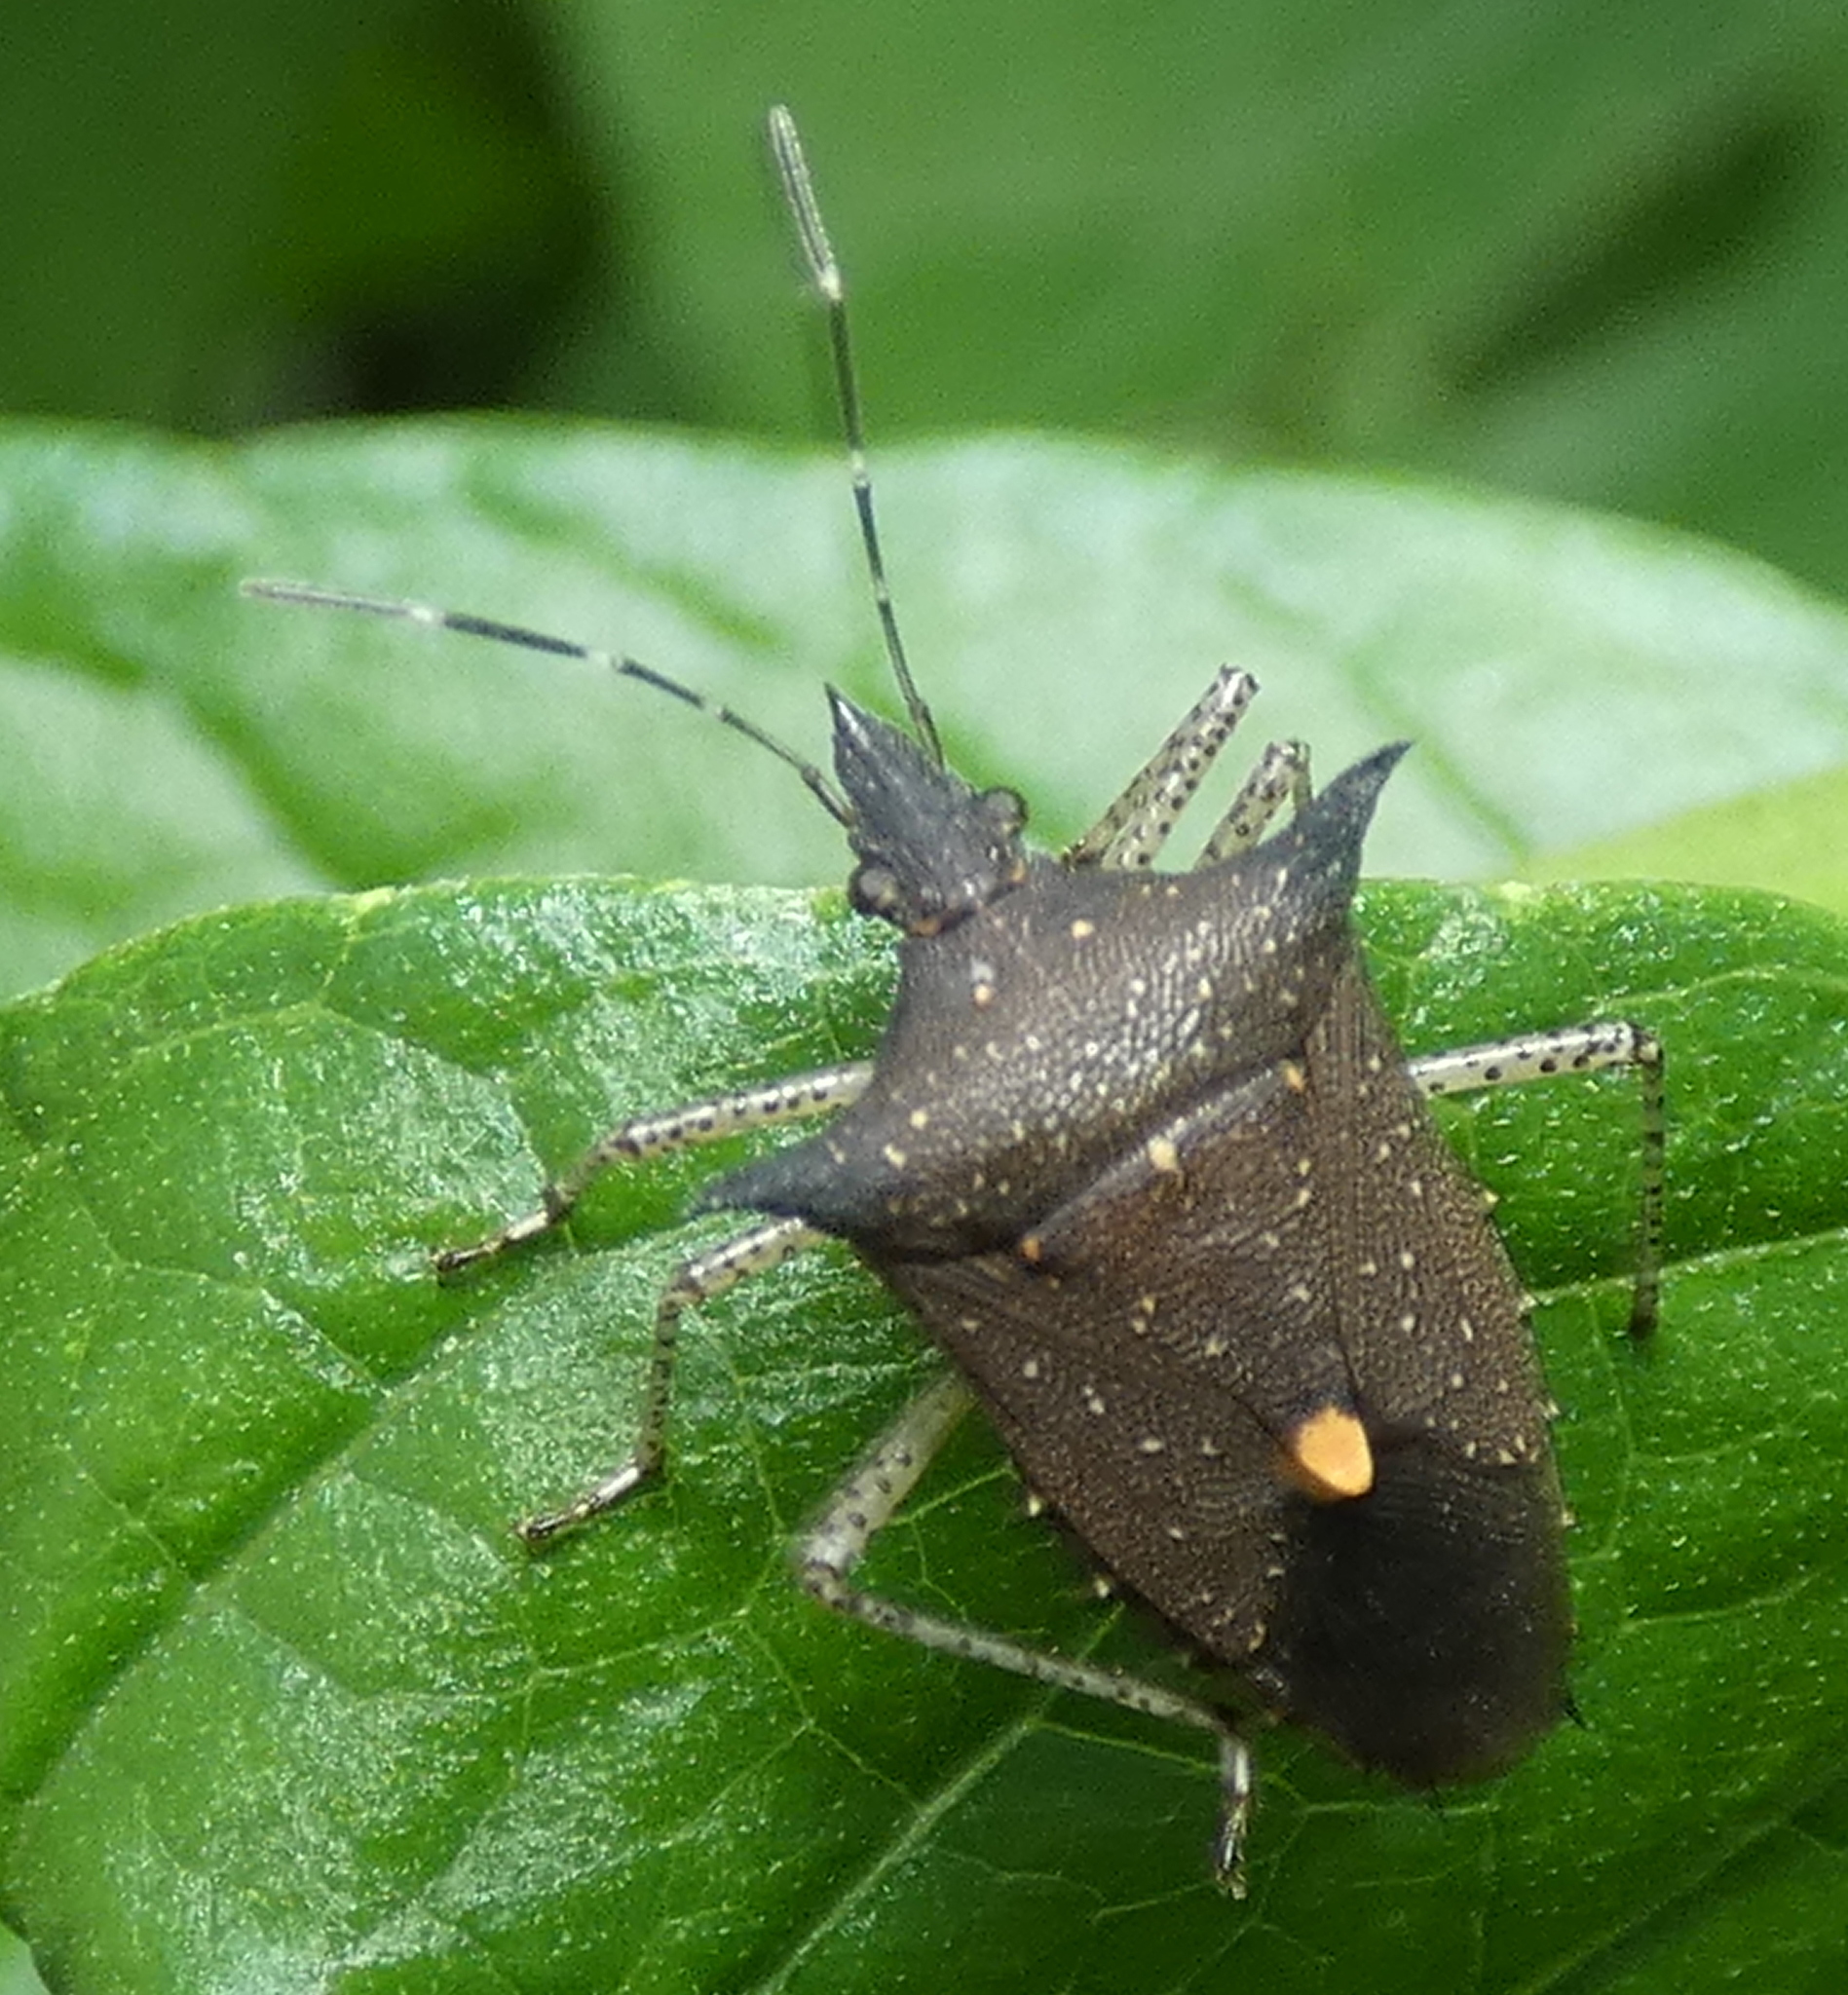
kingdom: Animalia
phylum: Arthropoda
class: Insecta
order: Hemiptera
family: Pentatomidae
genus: Proxys
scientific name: Proxys albopunctulatus
